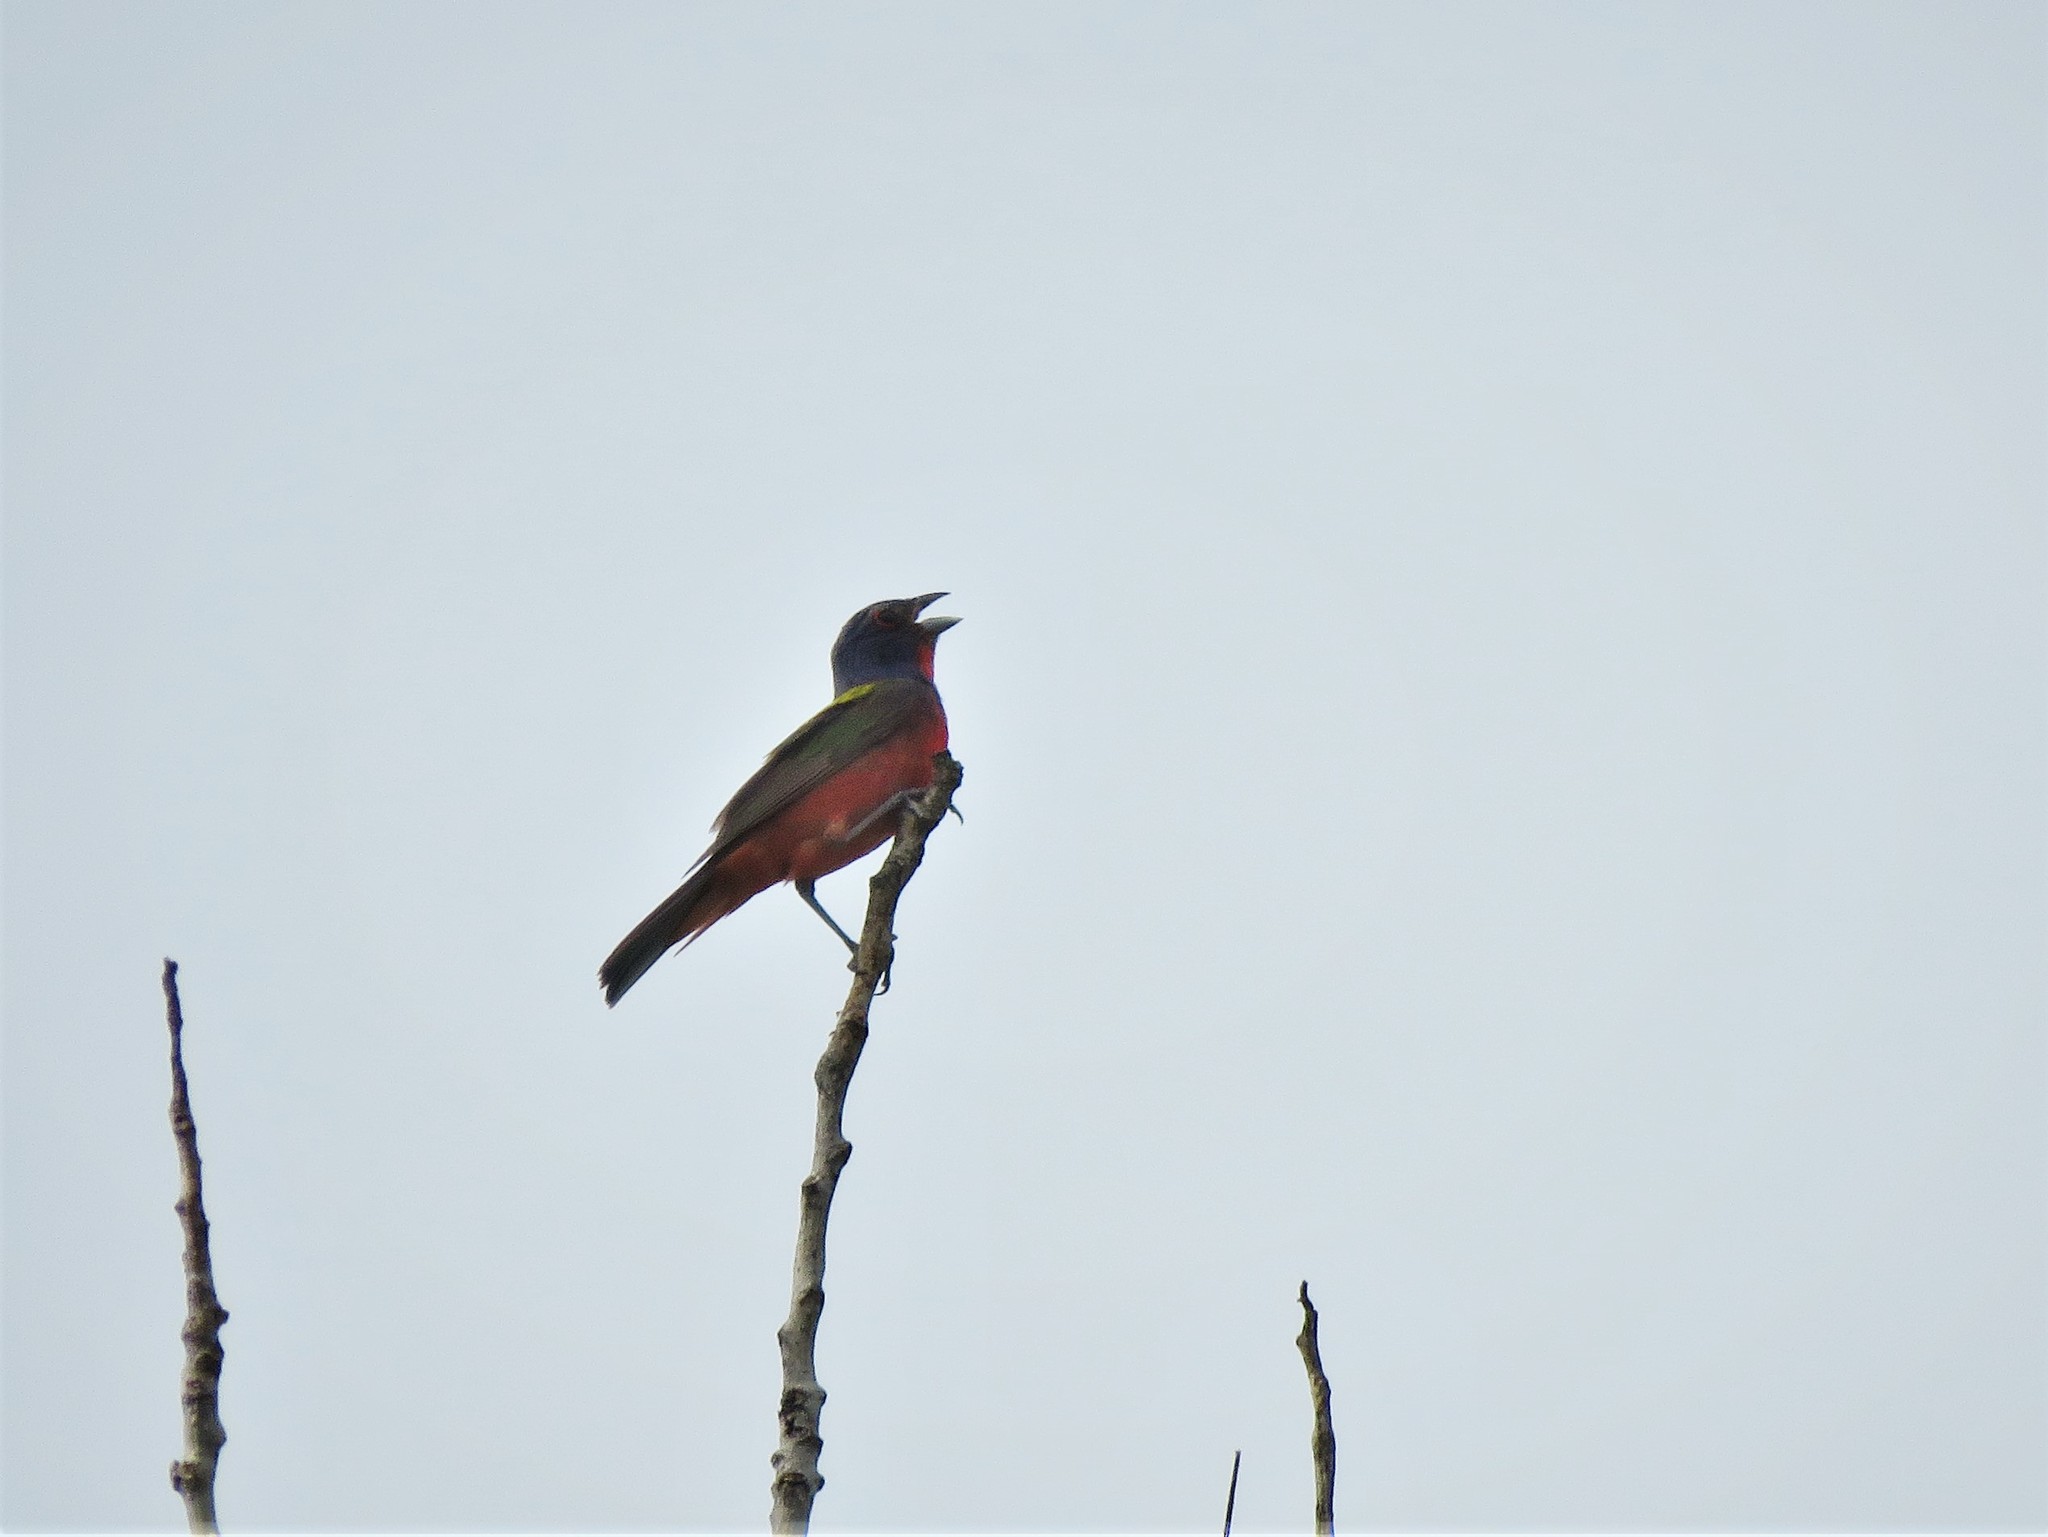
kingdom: Animalia
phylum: Chordata
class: Aves
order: Passeriformes
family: Cardinalidae
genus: Passerina
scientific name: Passerina ciris
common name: Painted bunting
